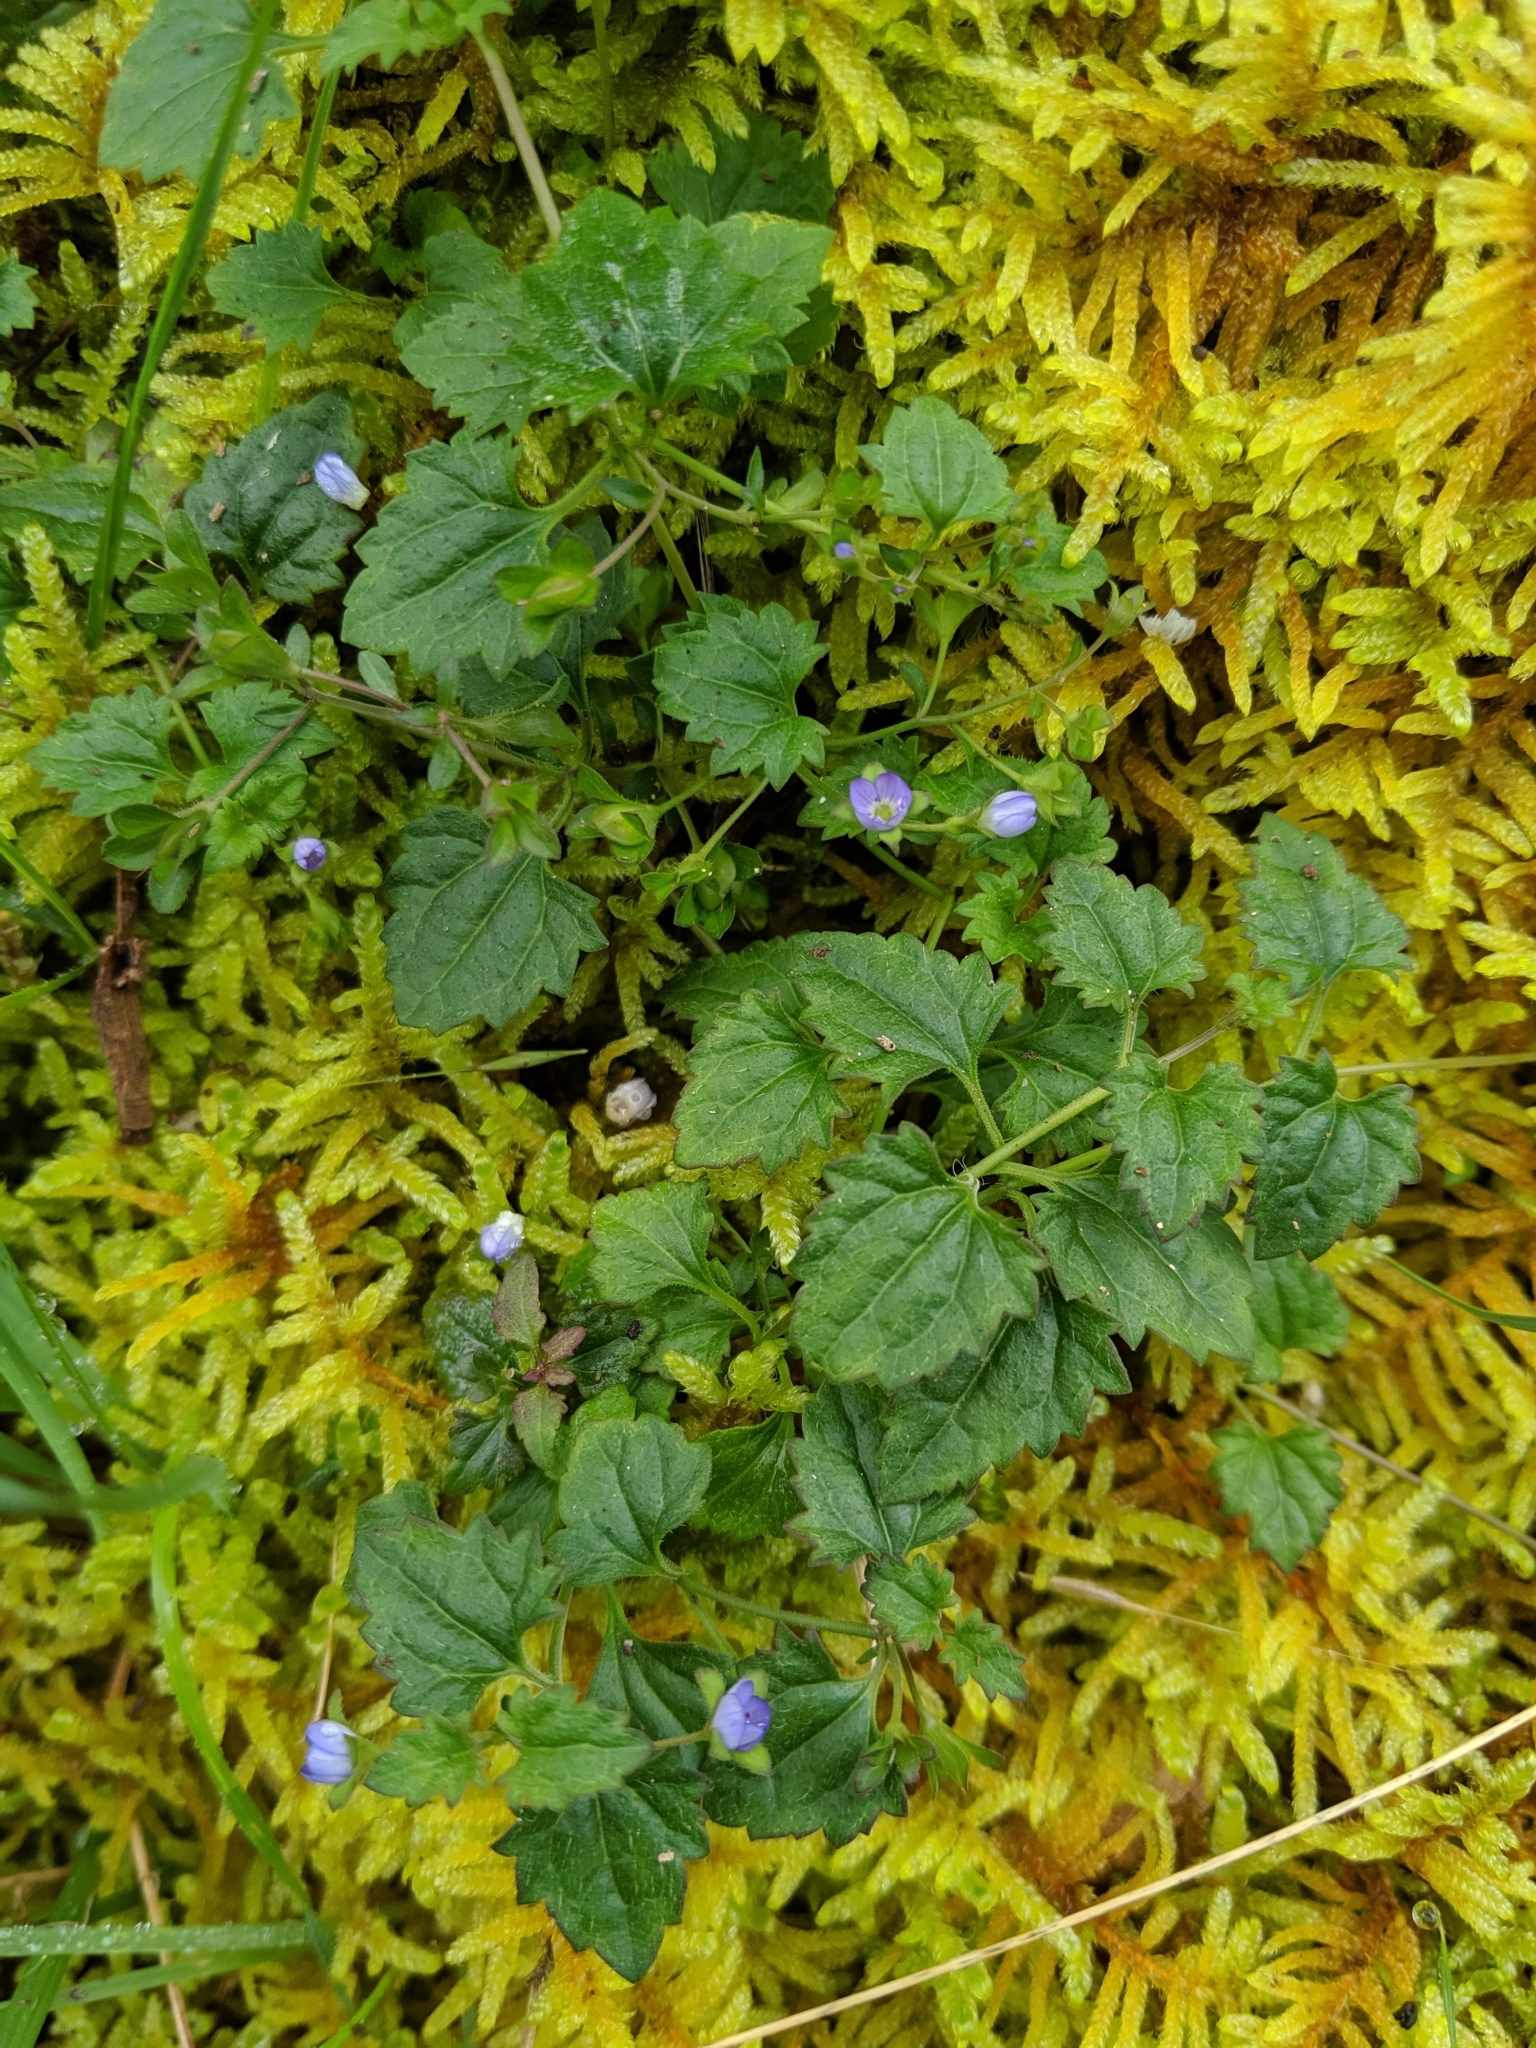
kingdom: Plantae
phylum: Tracheophyta
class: Magnoliopsida
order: Lamiales
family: Plantaginaceae
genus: Veronica
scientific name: Veronica plebeia
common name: Speedwell
